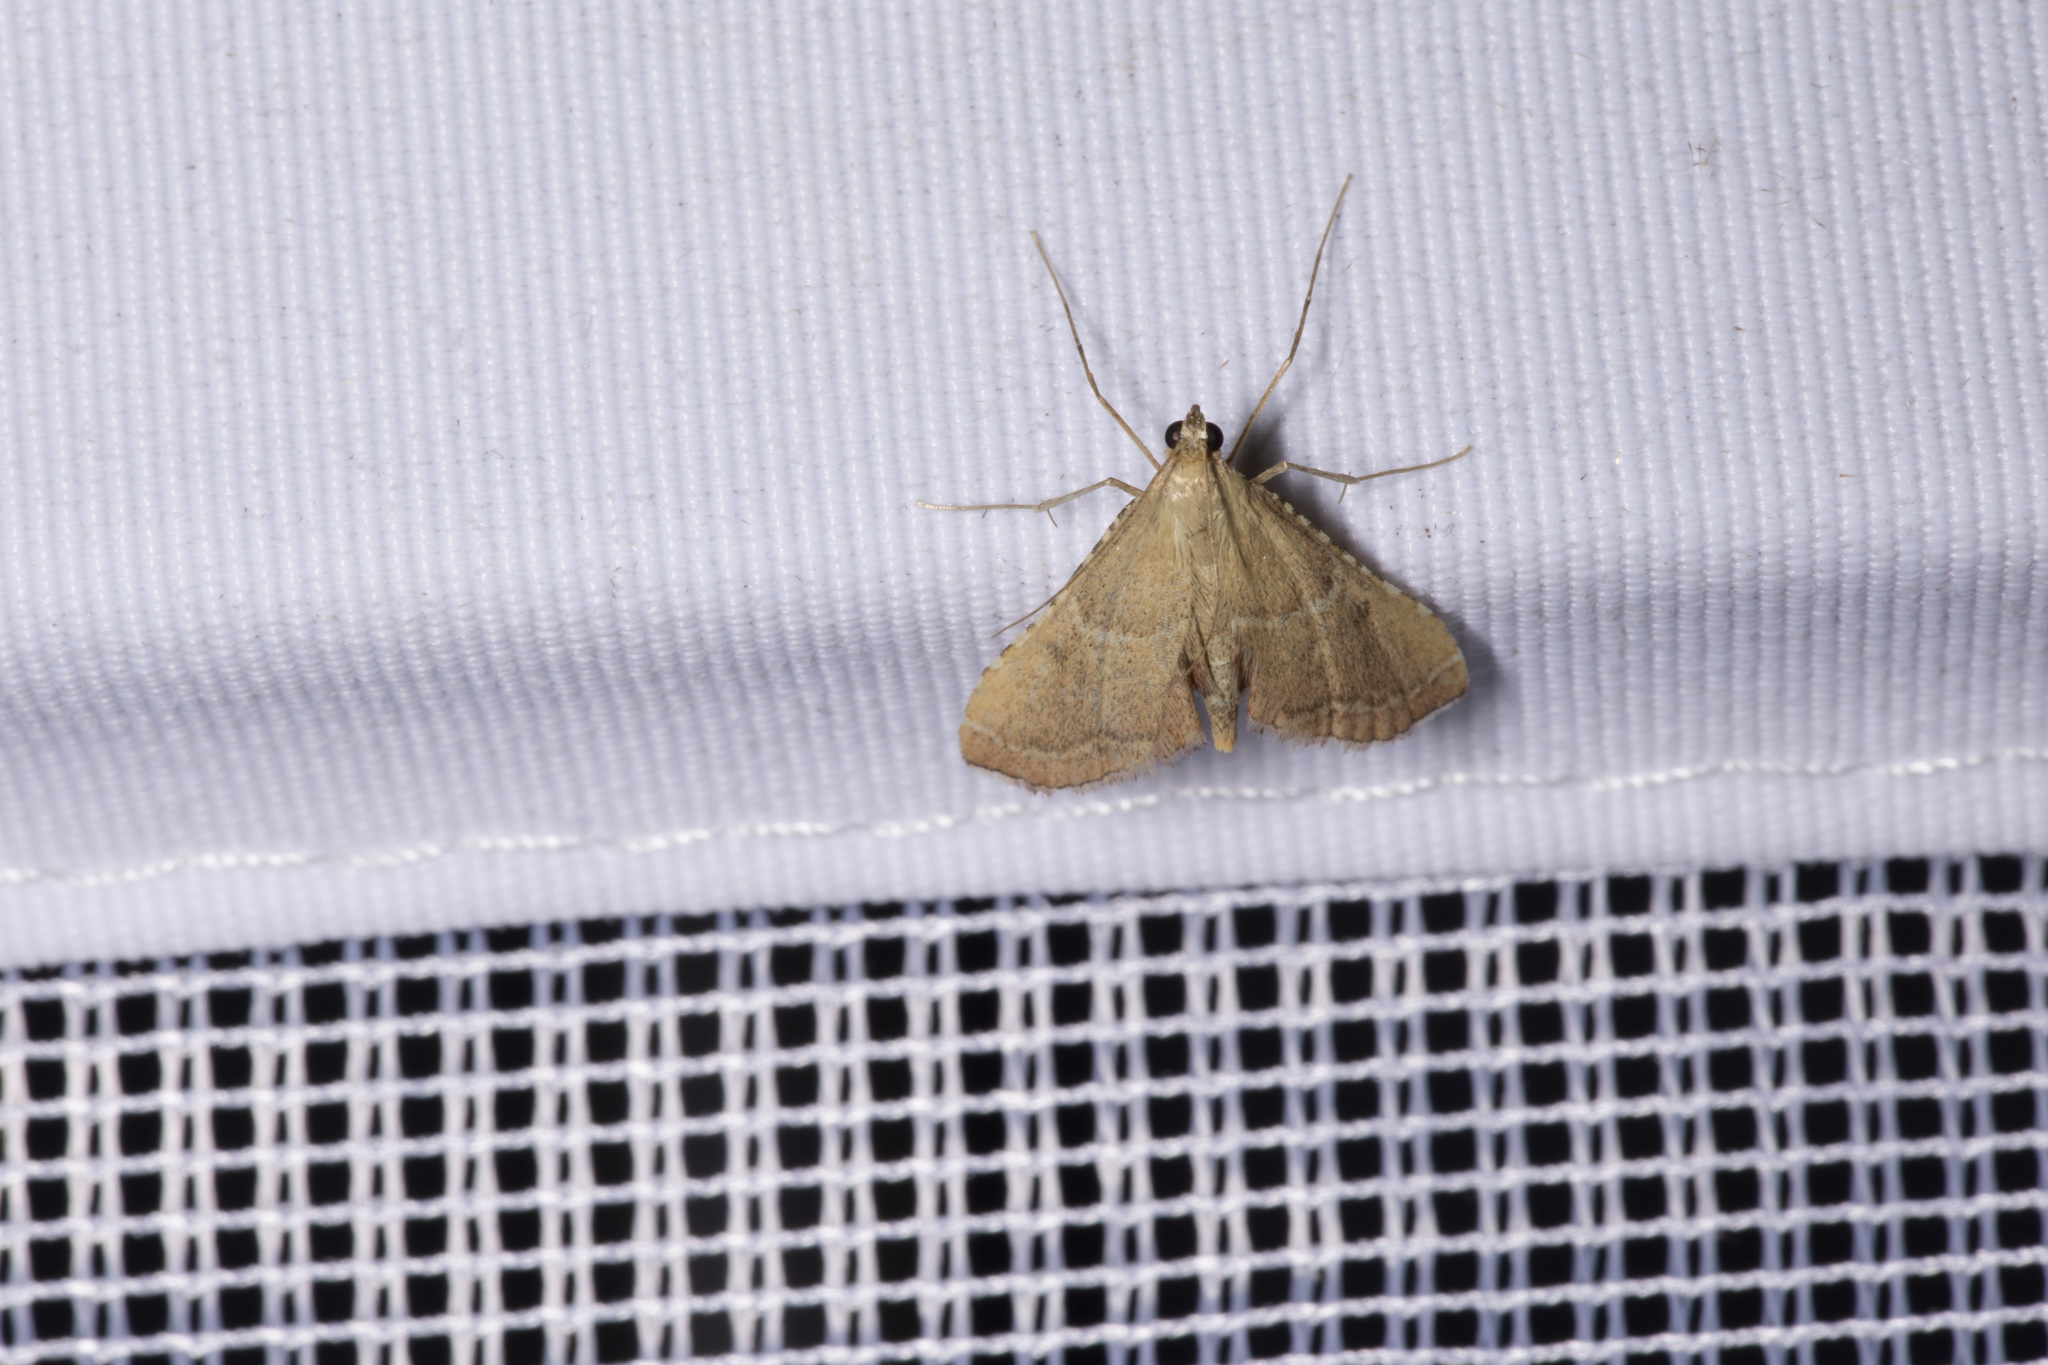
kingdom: Animalia
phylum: Arthropoda
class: Insecta
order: Lepidoptera
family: Pyralidae
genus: Endotricha
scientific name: Endotricha flammealis
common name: Rosy tabby
